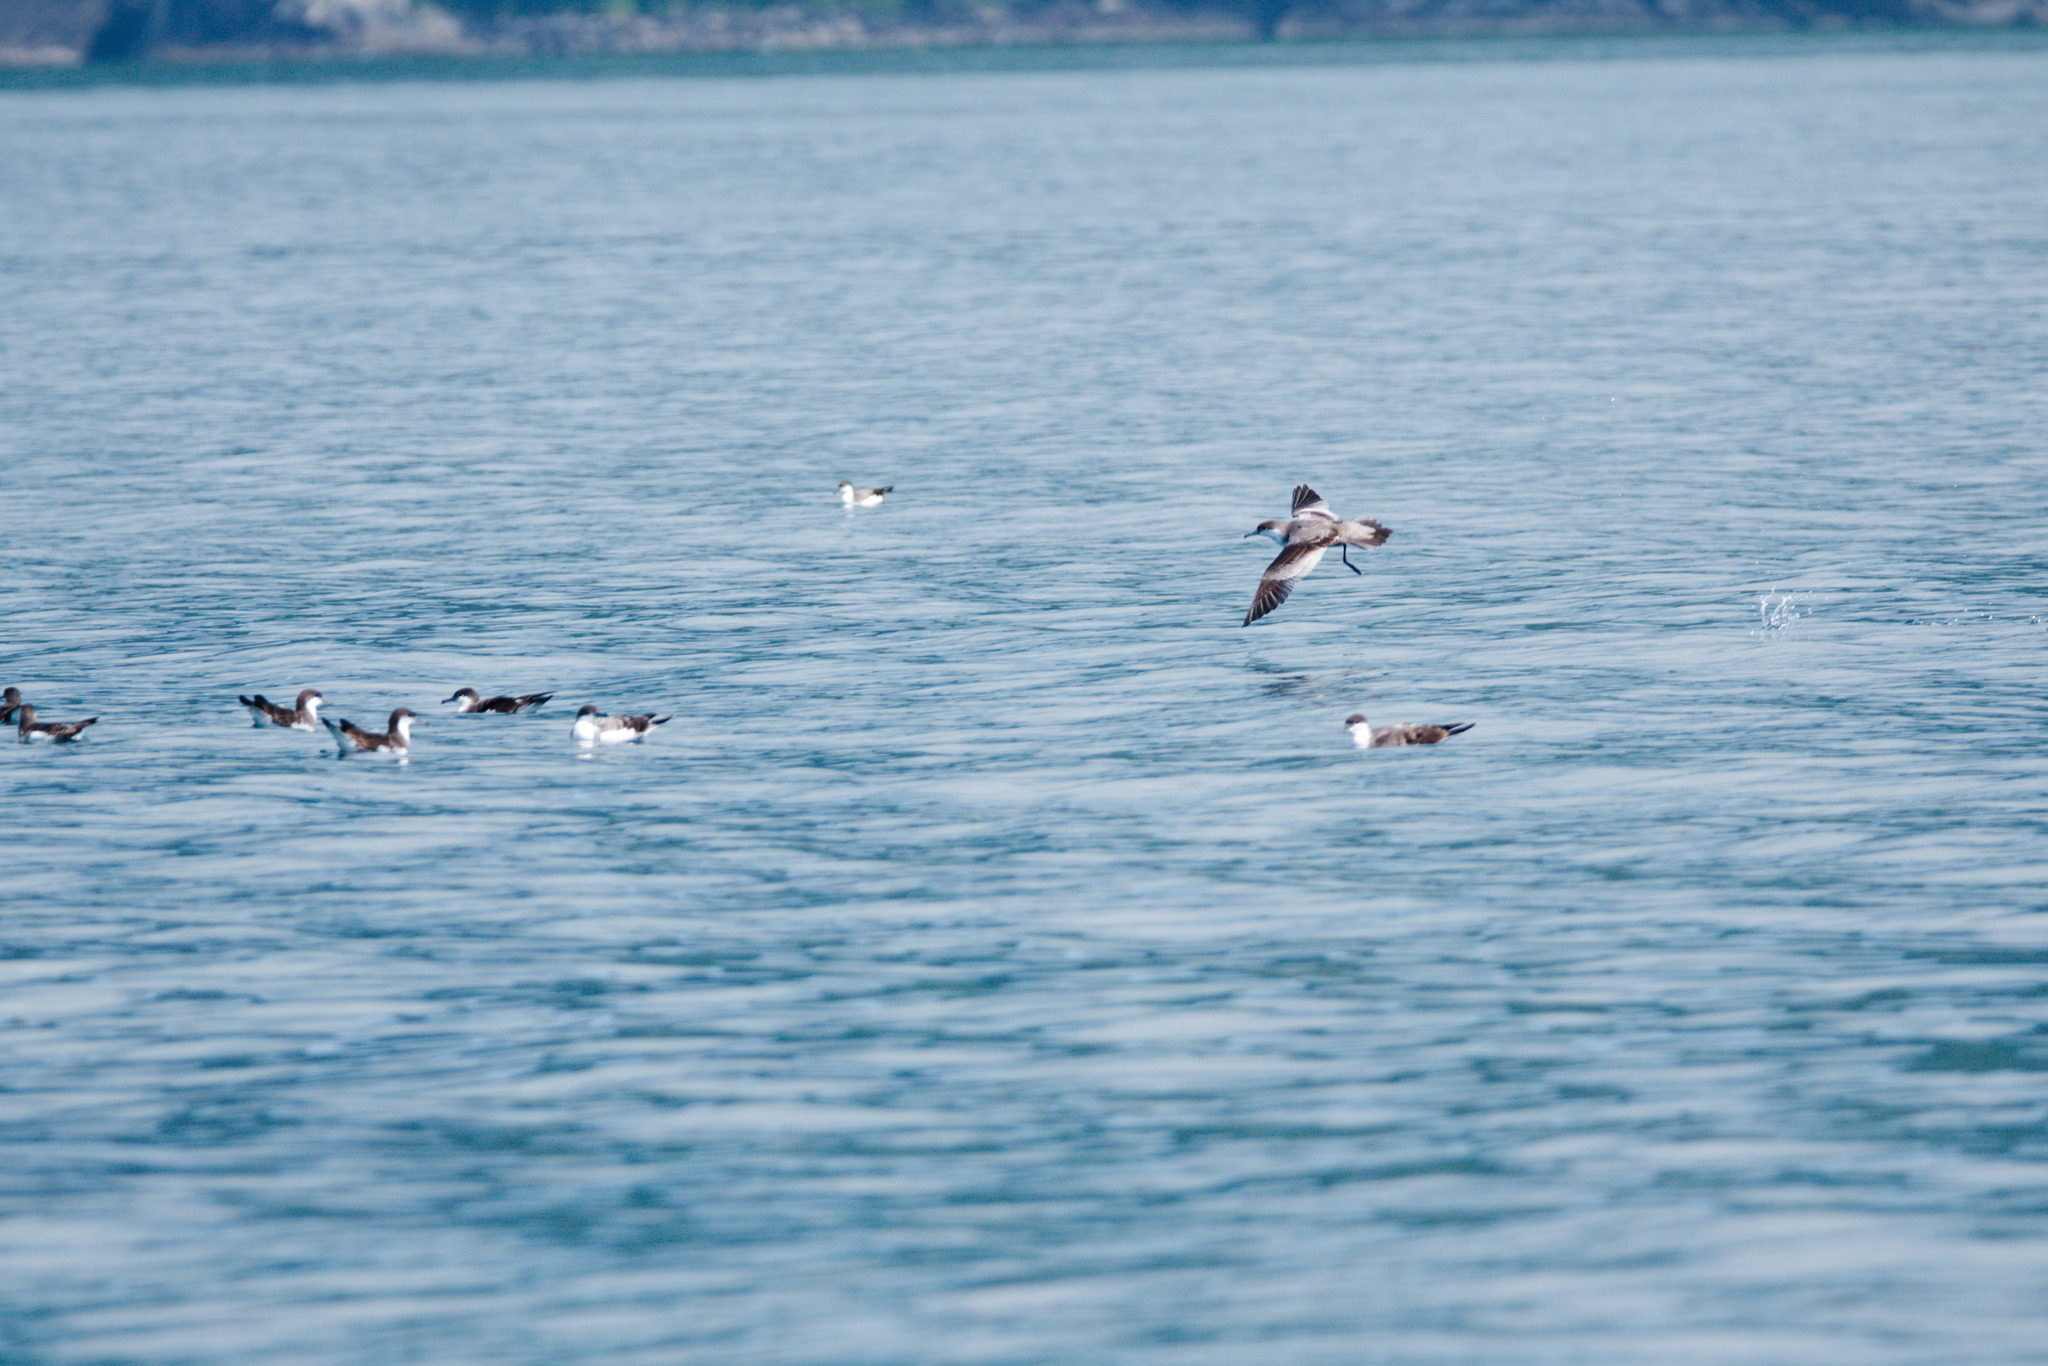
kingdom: Animalia
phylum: Chordata
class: Aves
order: Procellariiformes
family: Procellariidae
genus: Puffinus
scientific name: Puffinus bulleri
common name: Buller's shearwater
